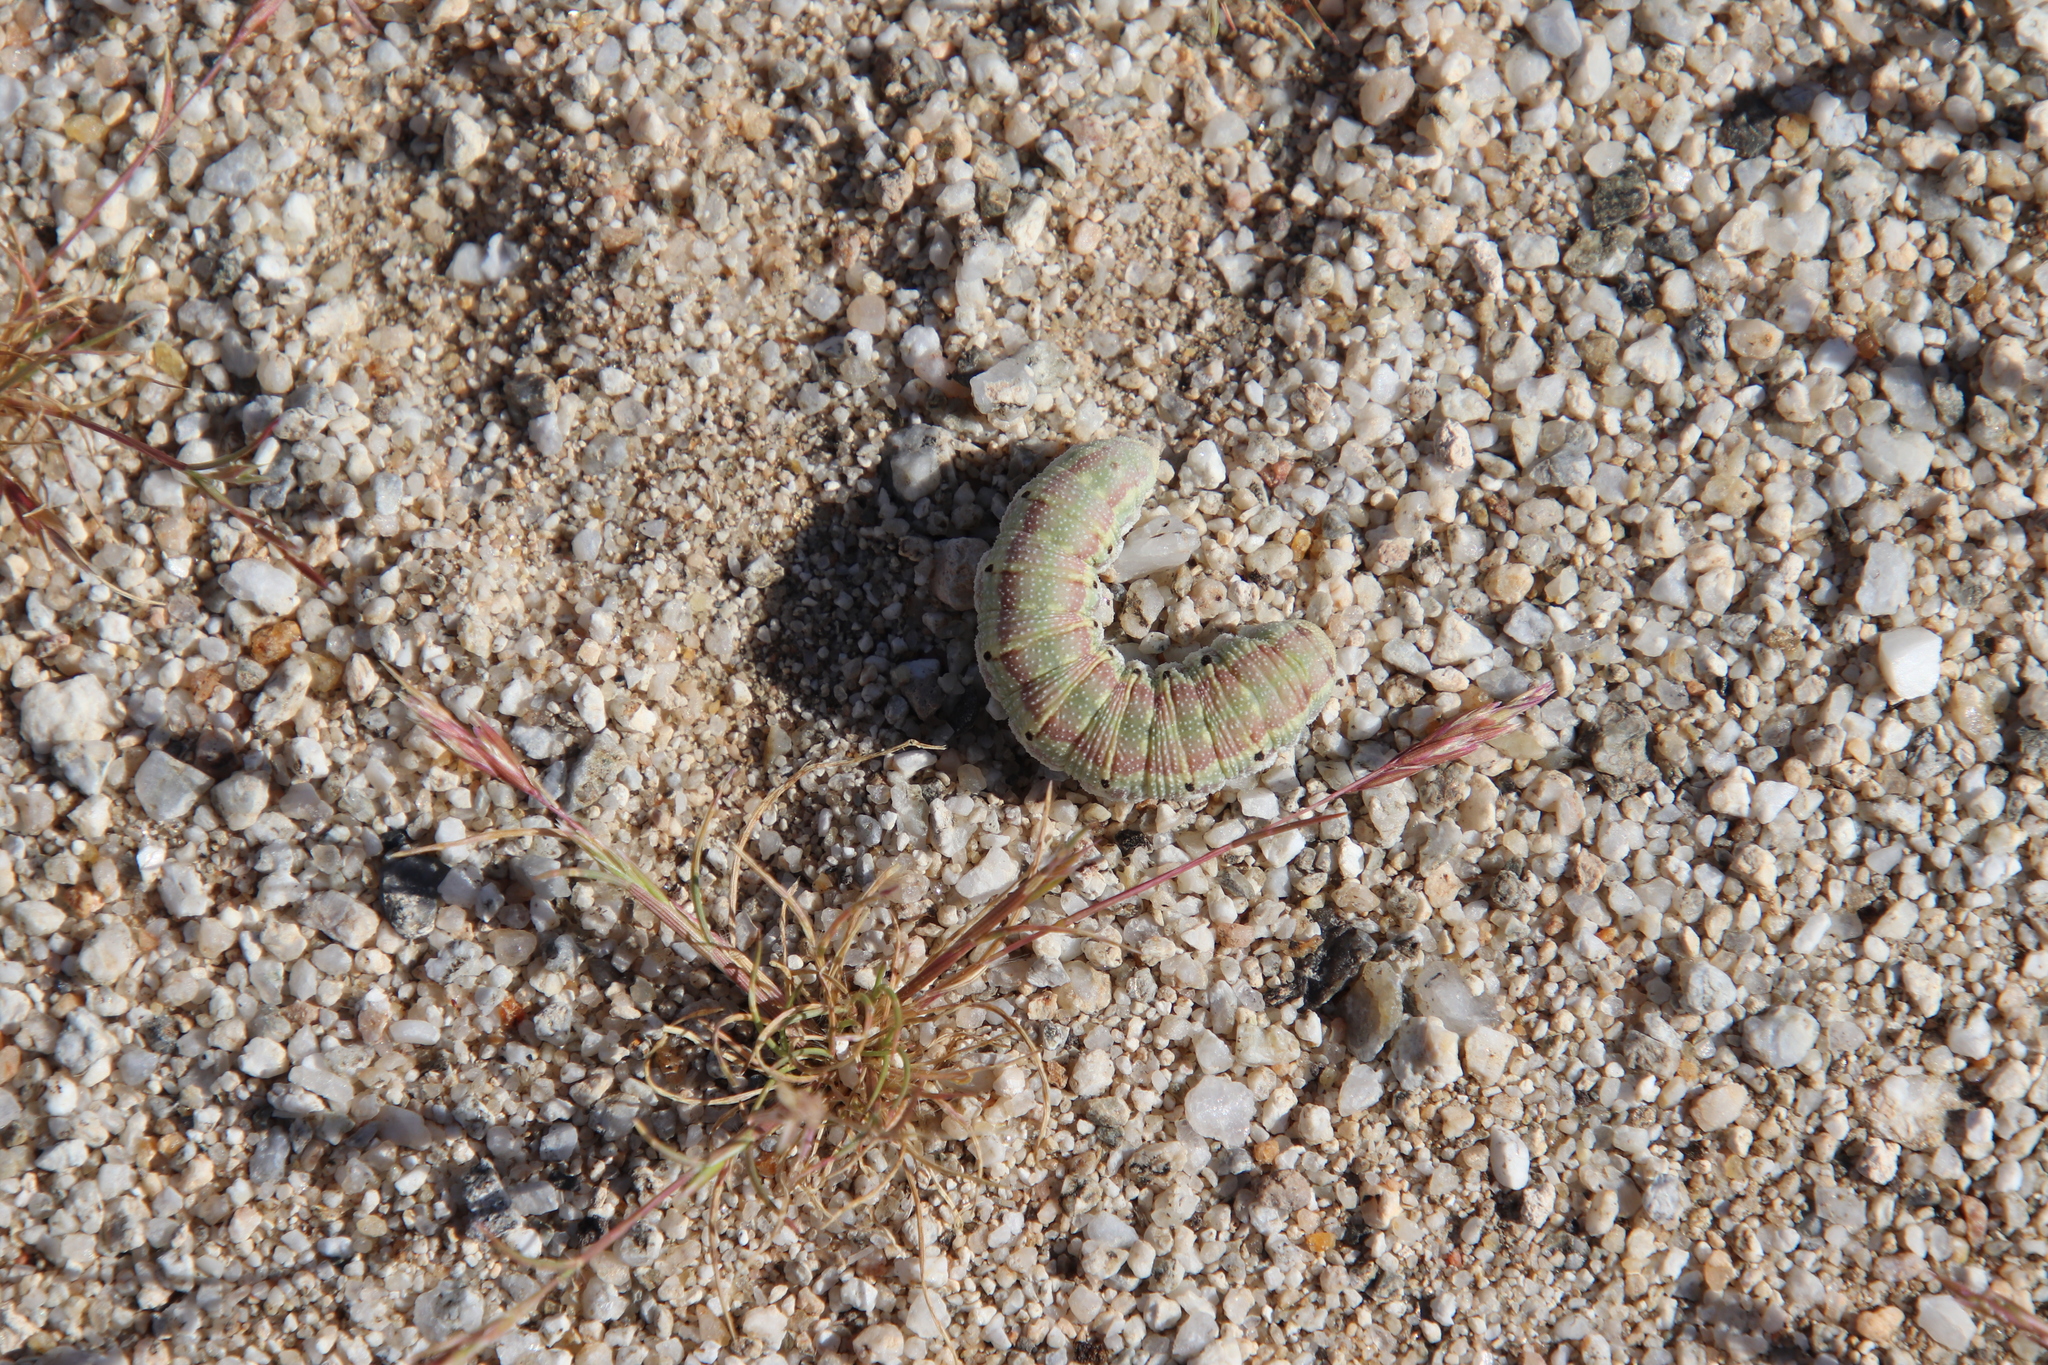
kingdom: Animalia
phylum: Arthropoda
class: Insecta
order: Lepidoptera
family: Sphingidae
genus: Euproserpinus
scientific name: Euproserpinus phaeton
